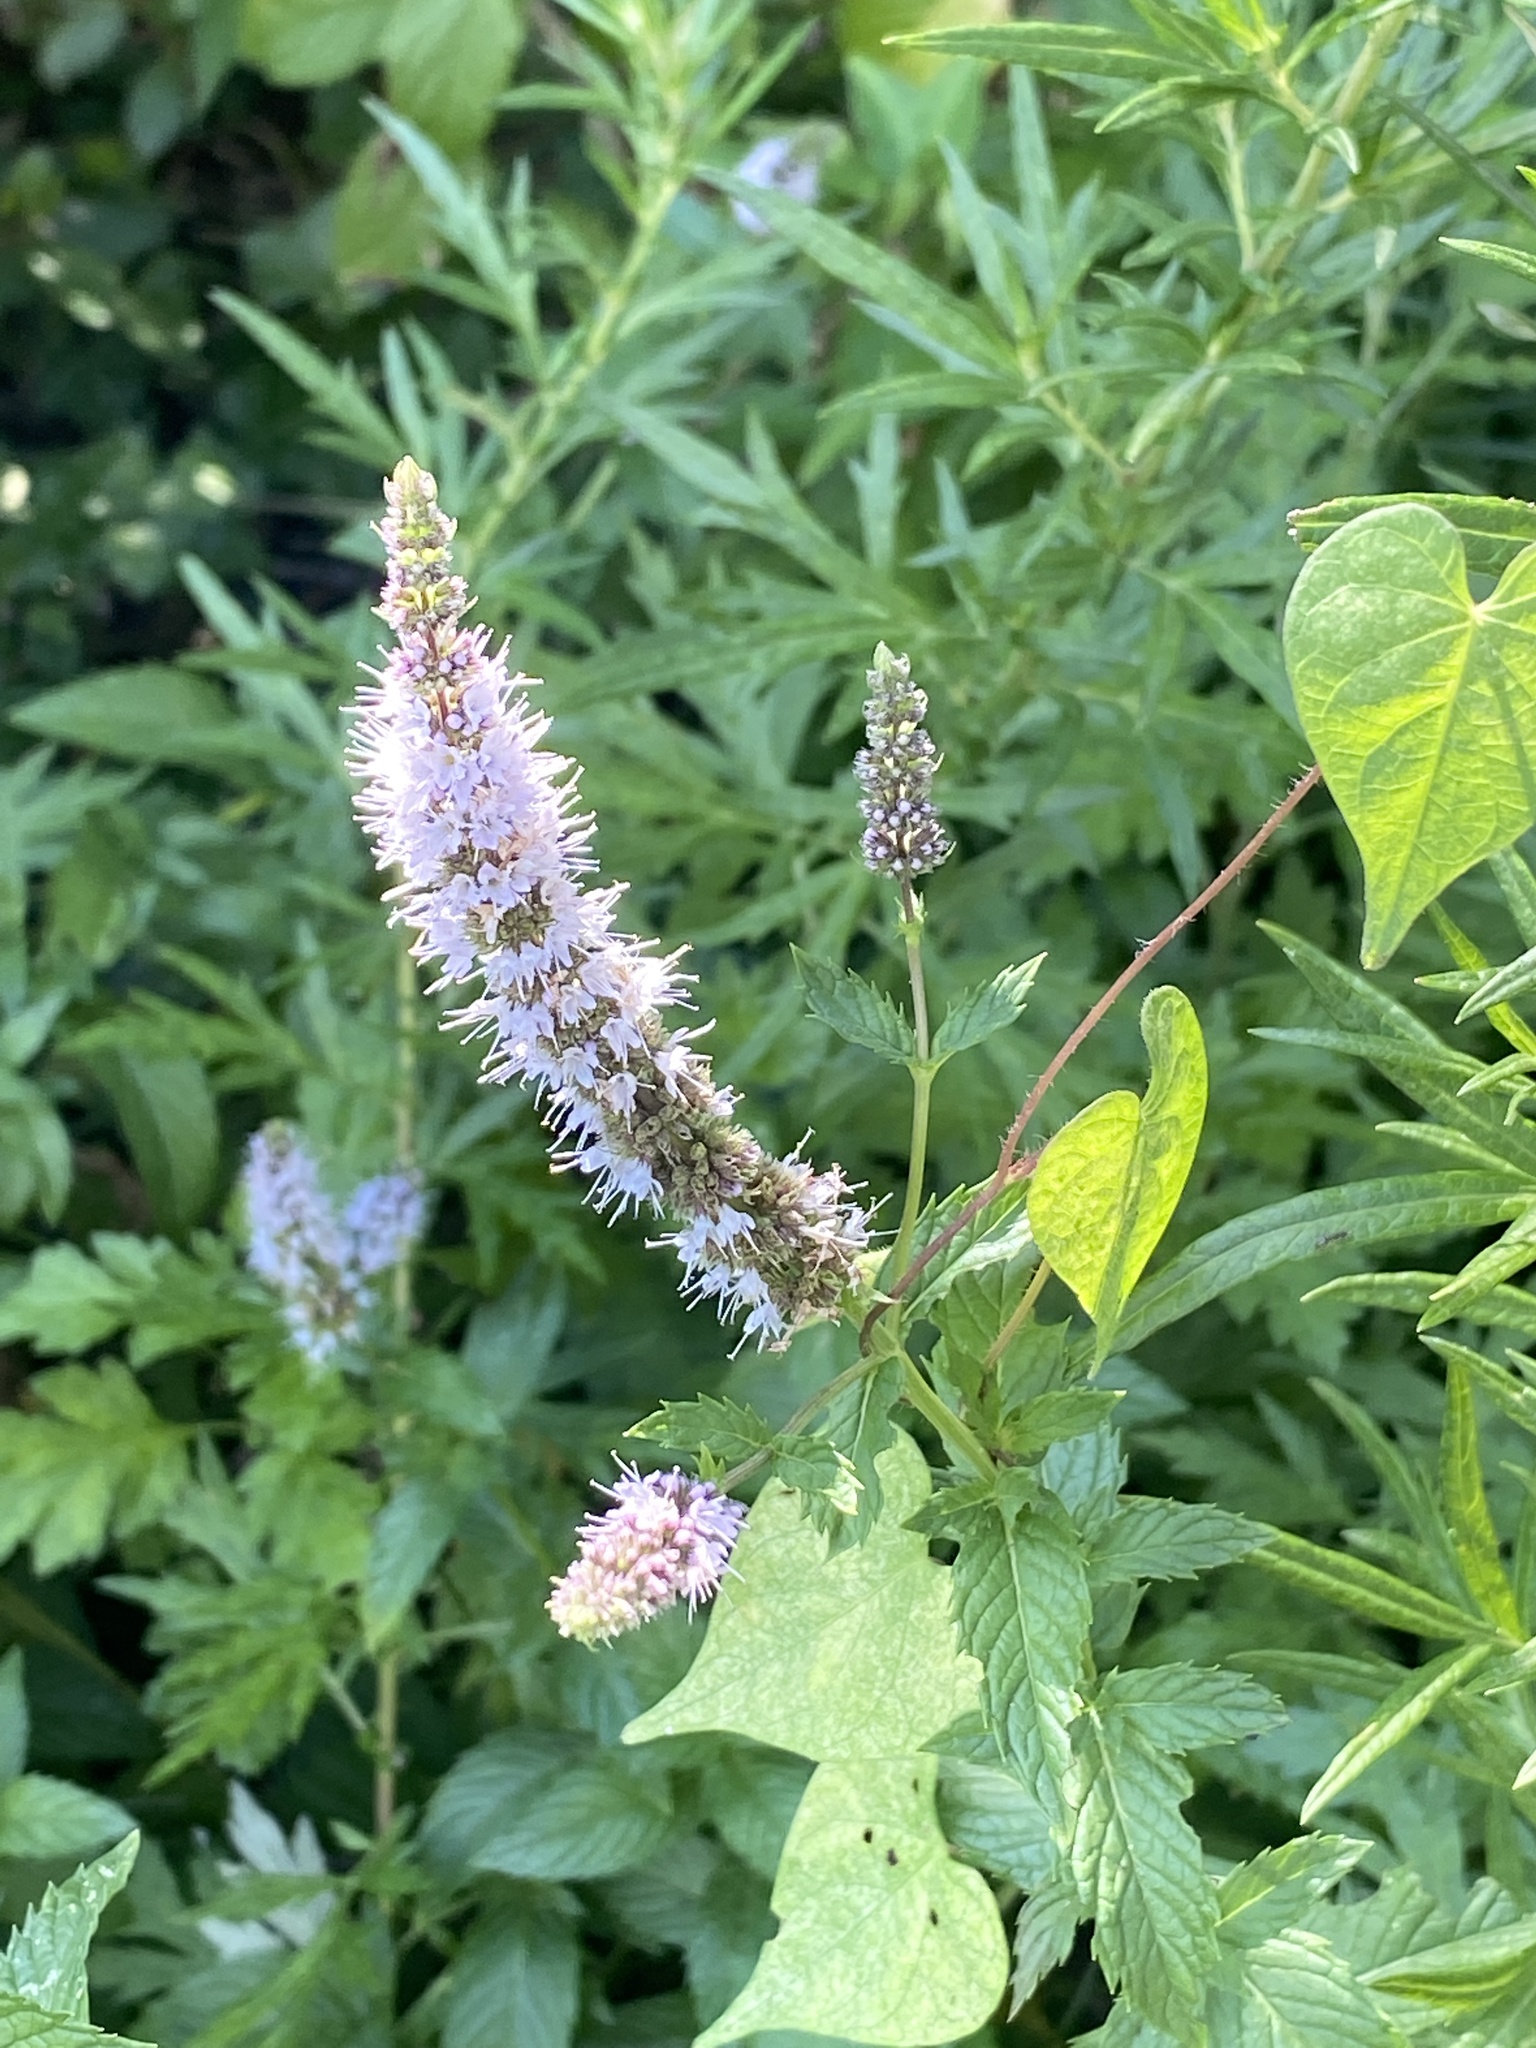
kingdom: Plantae
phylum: Tracheophyta
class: Magnoliopsida
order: Lamiales
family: Lamiaceae
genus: Mentha
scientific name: Mentha spicata
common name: Spearmint
